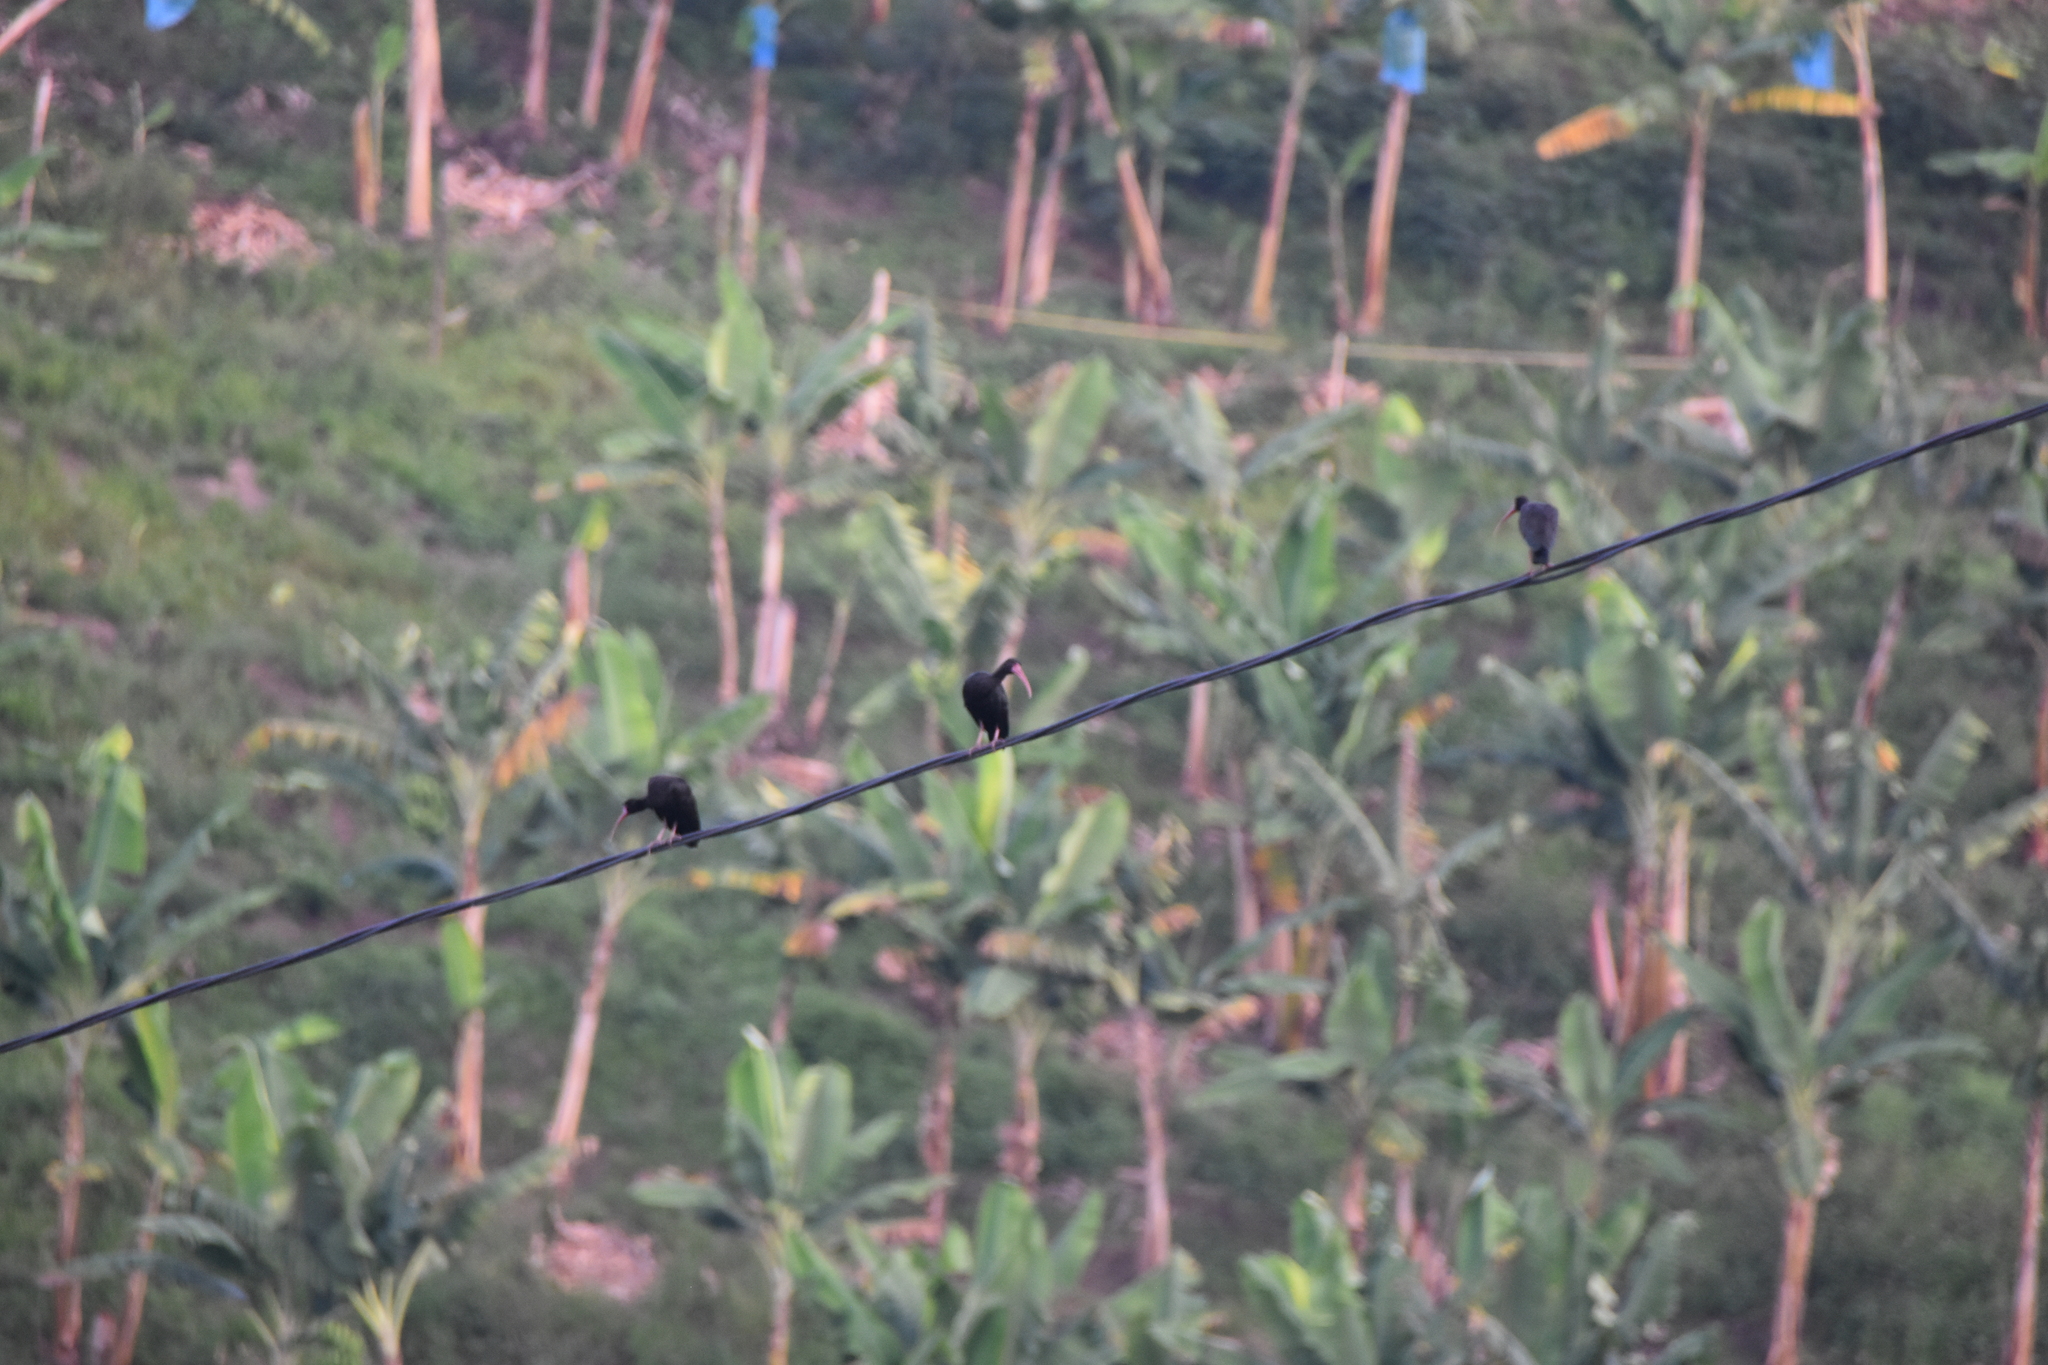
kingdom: Animalia
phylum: Chordata
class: Aves
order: Pelecaniformes
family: Threskiornithidae
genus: Phimosus
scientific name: Phimosus infuscatus
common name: Bare-faced ibis
